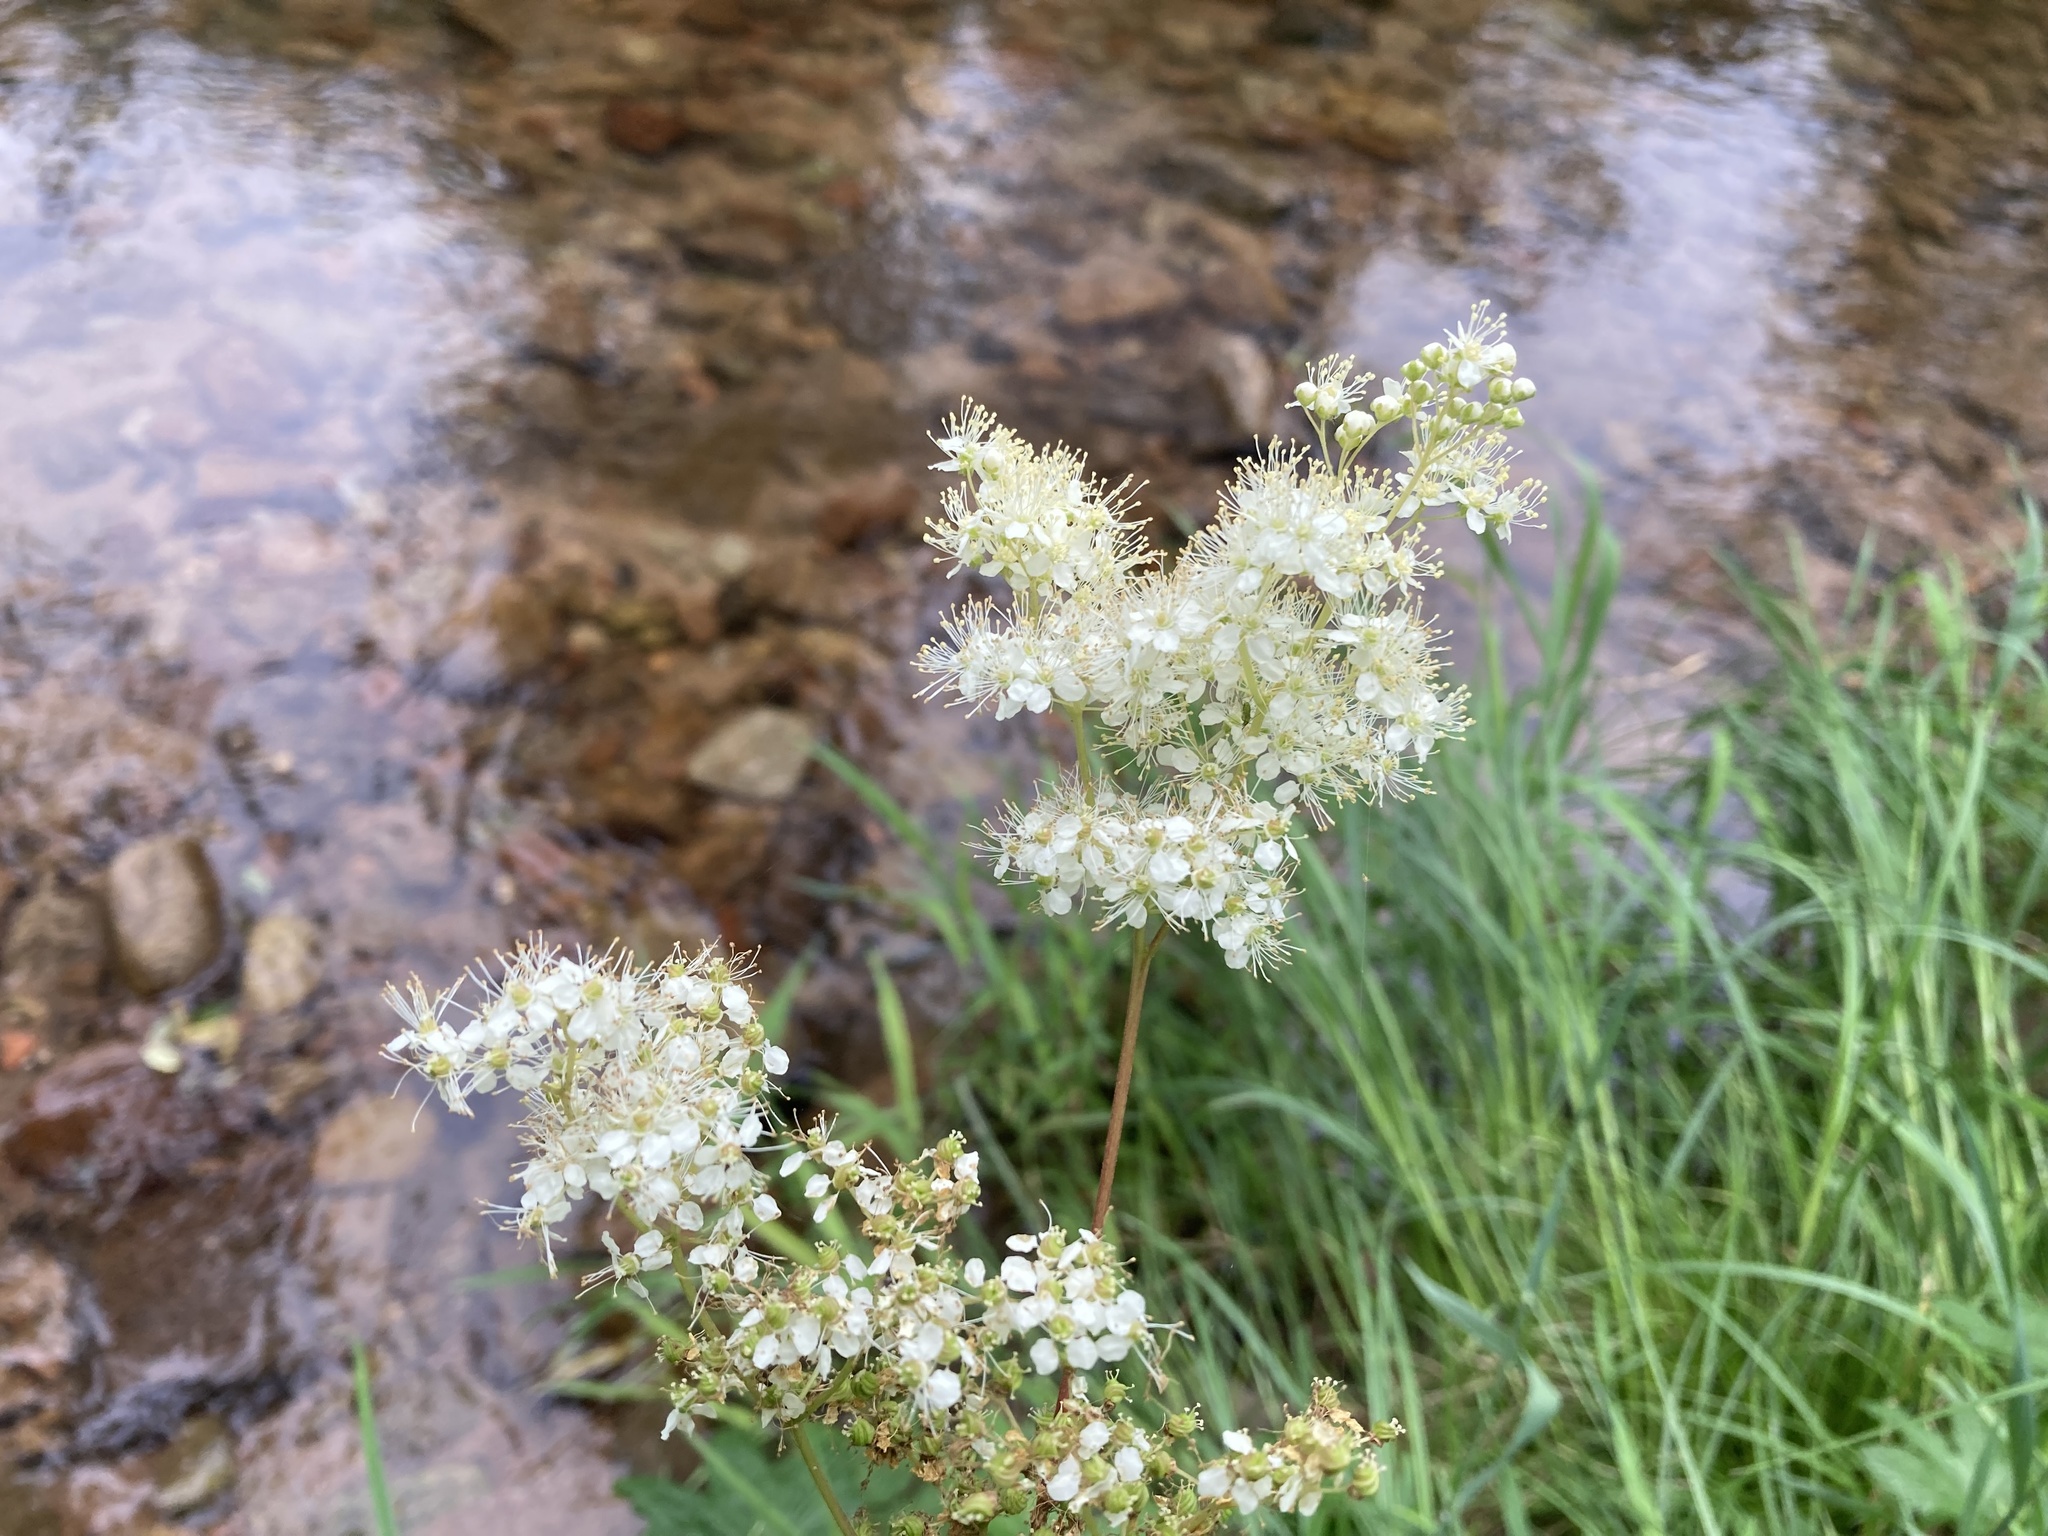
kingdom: Plantae
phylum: Tracheophyta
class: Magnoliopsida
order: Rosales
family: Rosaceae
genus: Filipendula
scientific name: Filipendula ulmaria
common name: Meadowsweet
